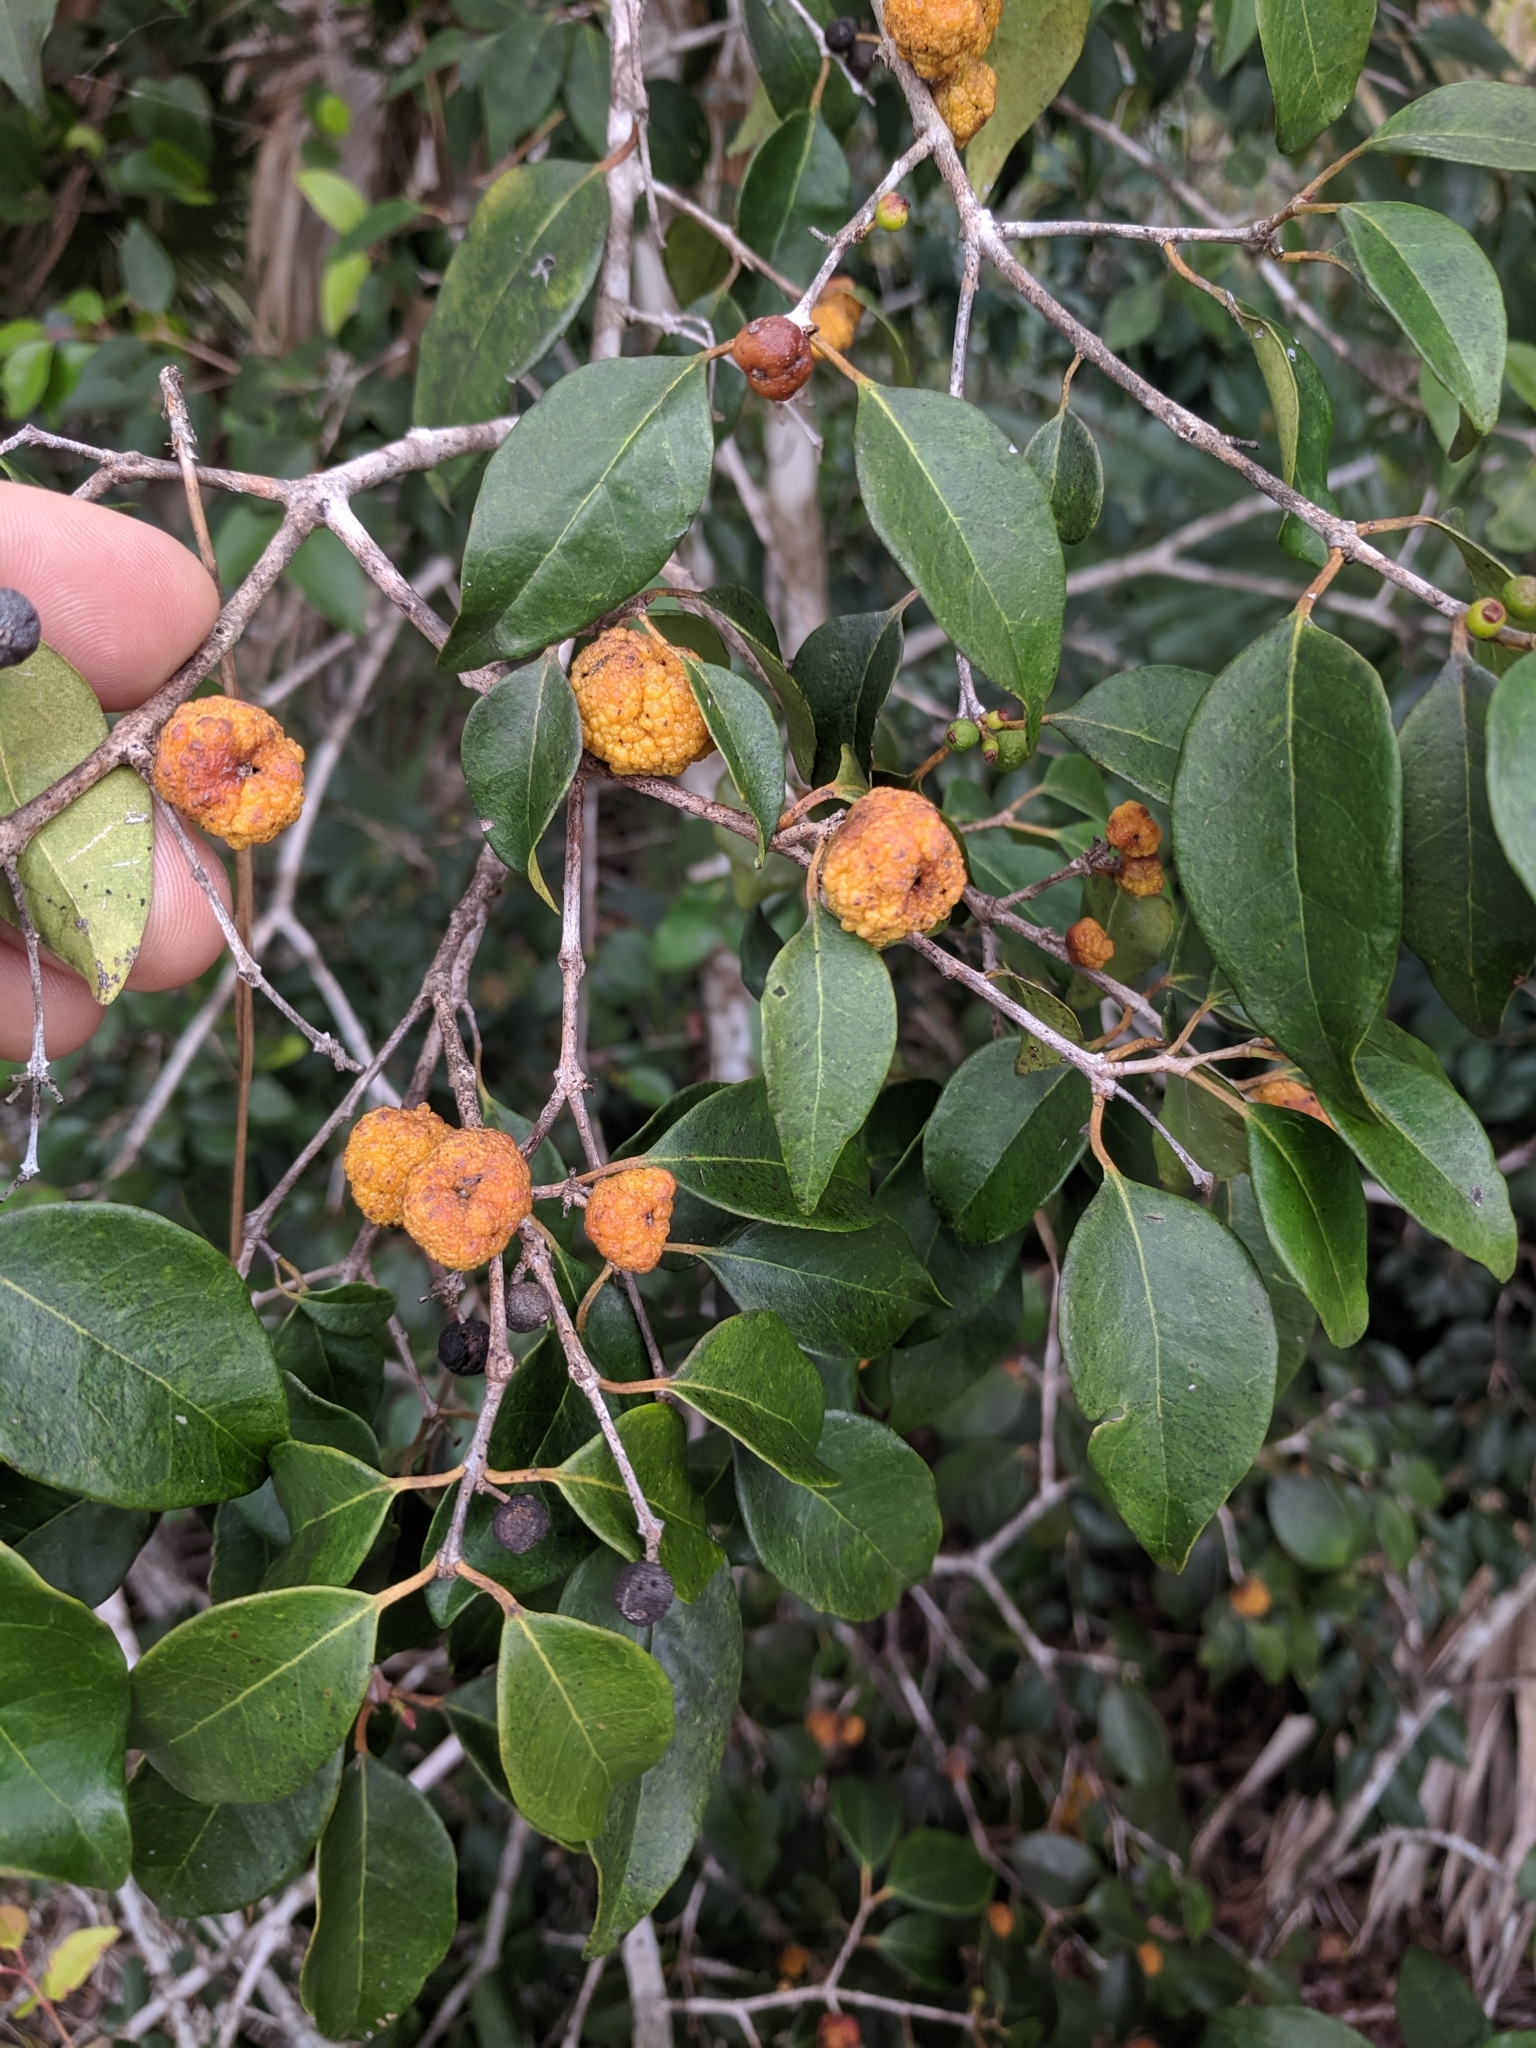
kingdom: Plantae
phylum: Tracheophyta
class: Magnoliopsida
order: Myrtales
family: Myrtaceae
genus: Eugenia
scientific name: Eugenia axillaris
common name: Choaky berry
